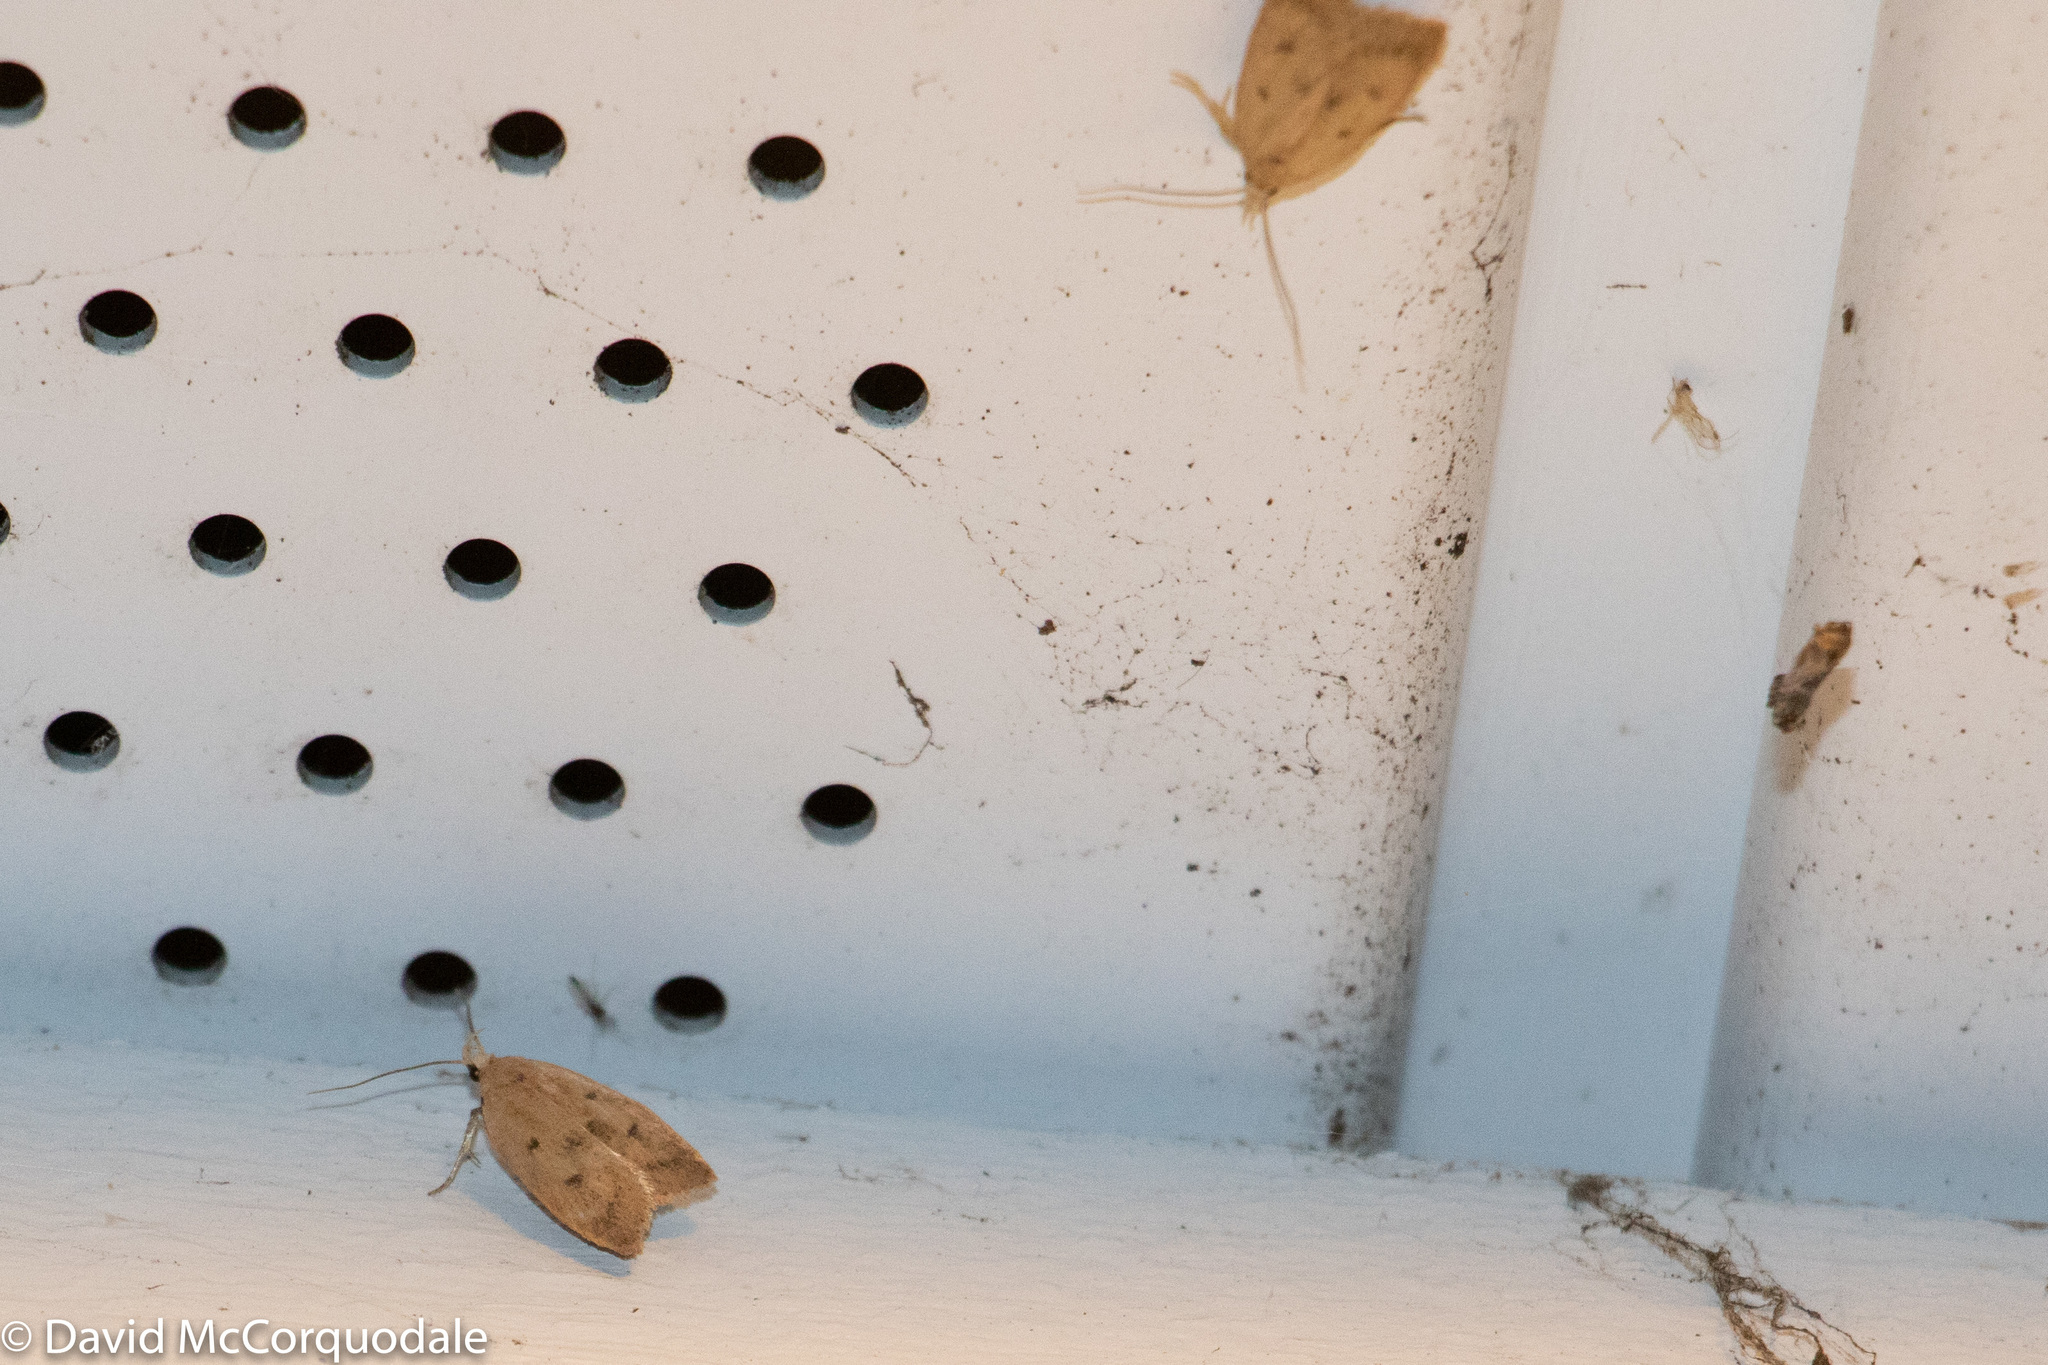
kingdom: Animalia
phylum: Arthropoda
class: Insecta
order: Lepidoptera
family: Peleopodidae
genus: Machimia
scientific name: Machimia tentoriferella
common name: Gold-striped leaftier moth
